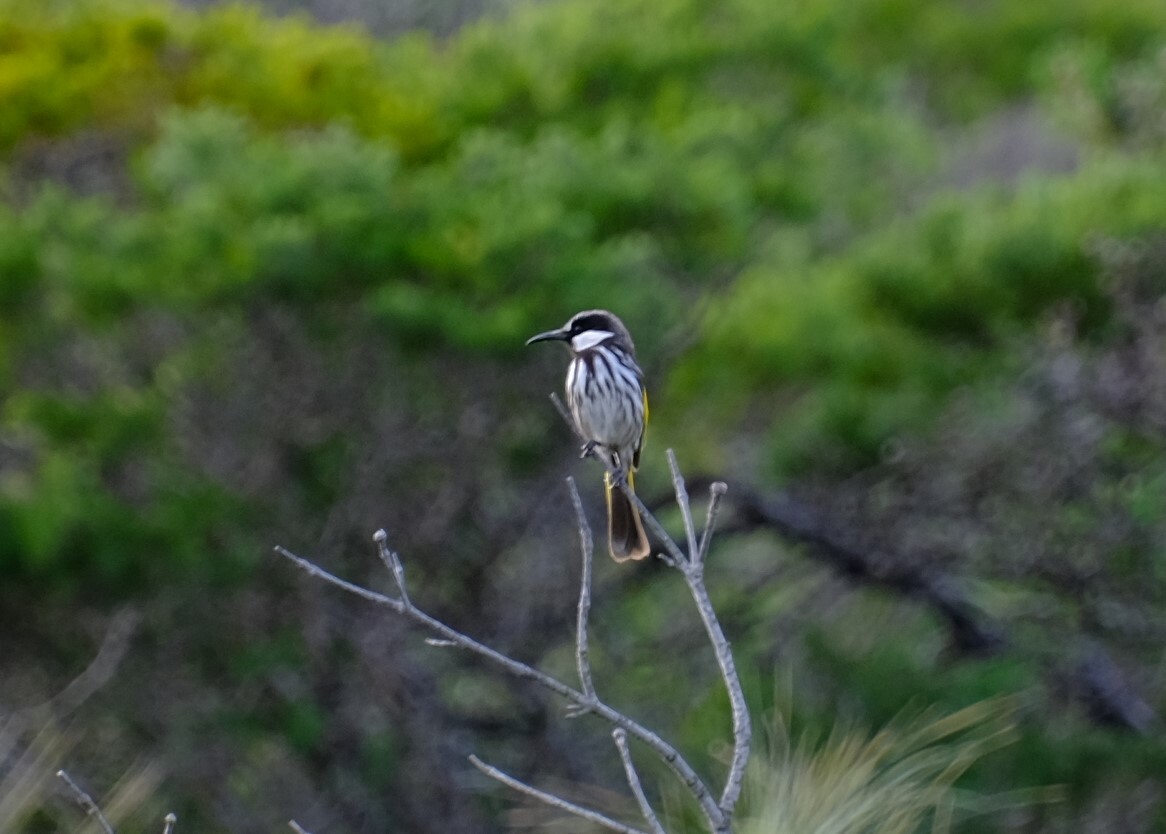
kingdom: Animalia
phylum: Chordata
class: Aves
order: Passeriformes
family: Meliphagidae
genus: Phylidonyris
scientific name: Phylidonyris niger
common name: White-cheeked honeyeater
